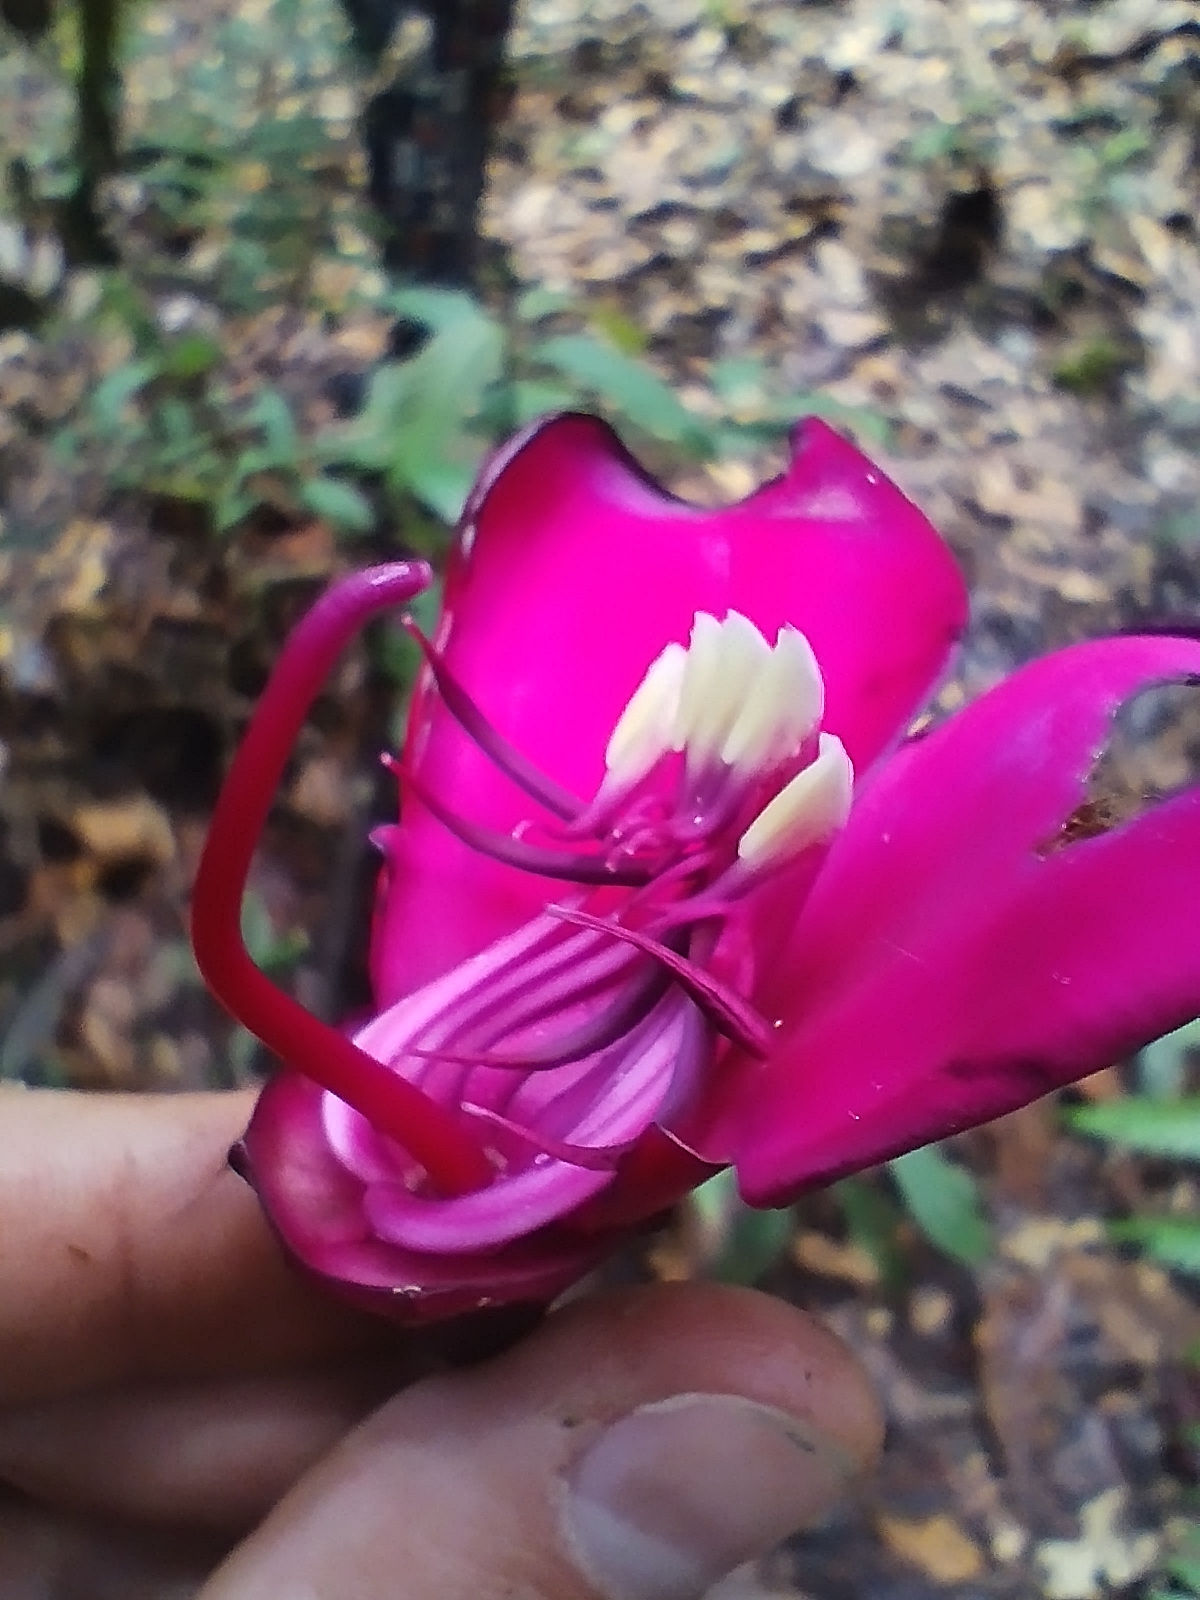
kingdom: Plantae
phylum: Tracheophyta
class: Magnoliopsida
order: Myrtales
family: Melastomataceae
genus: Meriania
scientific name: Meriania nobilis
